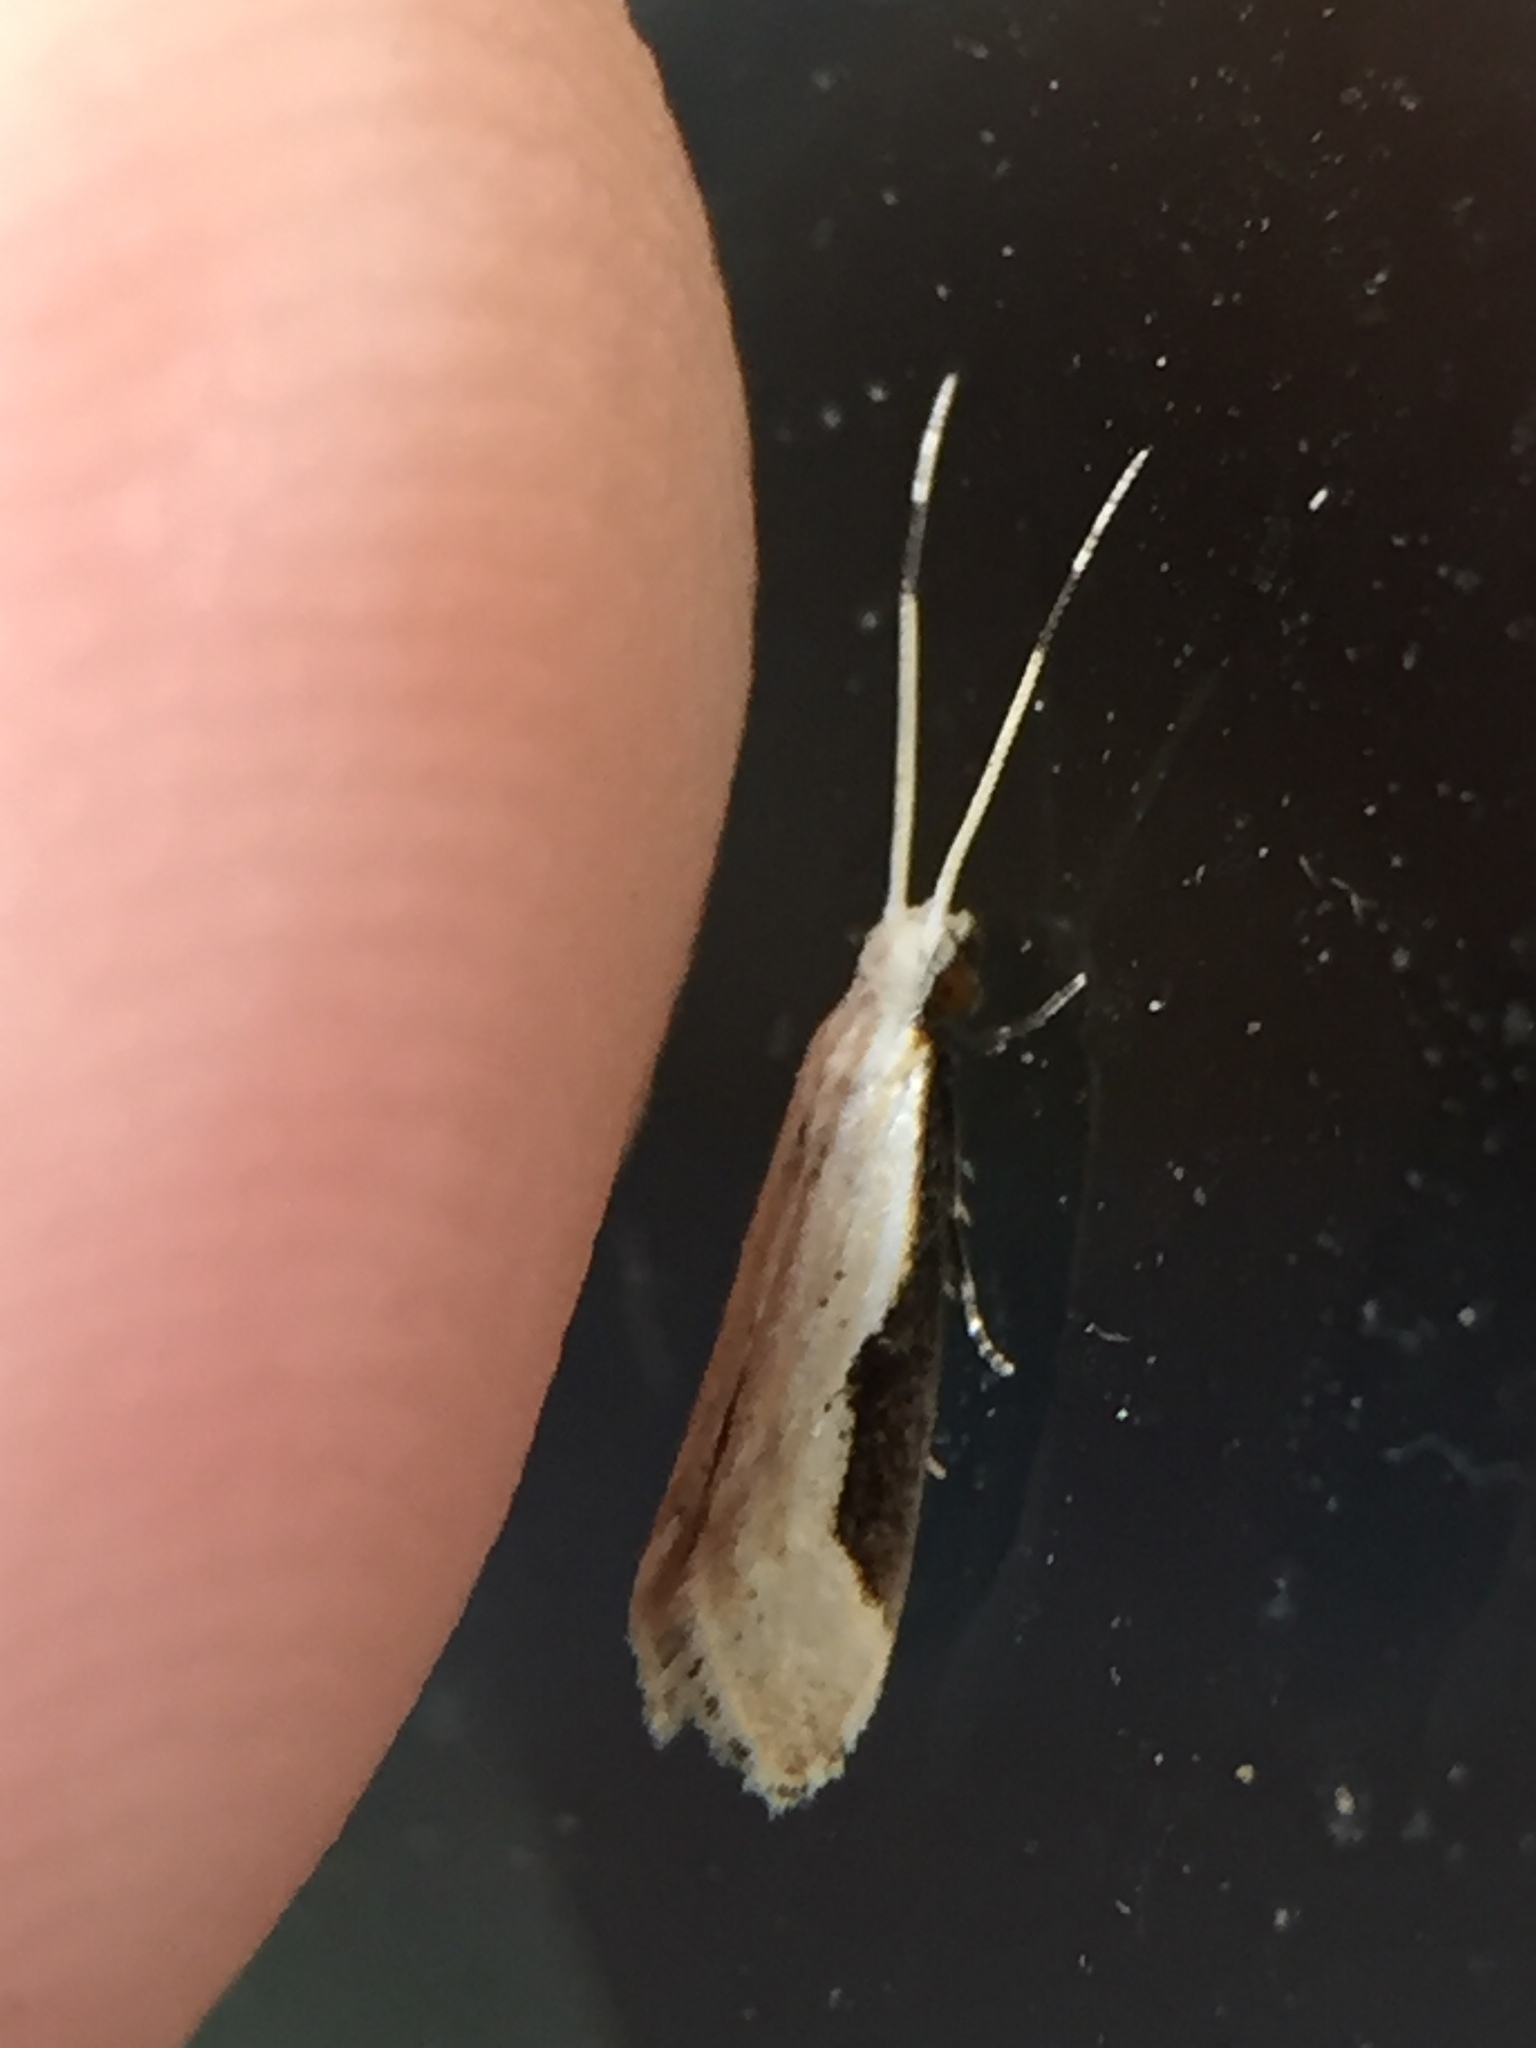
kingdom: Animalia
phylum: Arthropoda
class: Insecta
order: Lepidoptera
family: Tineidae
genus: Sagephora
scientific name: Sagephora phortegella
